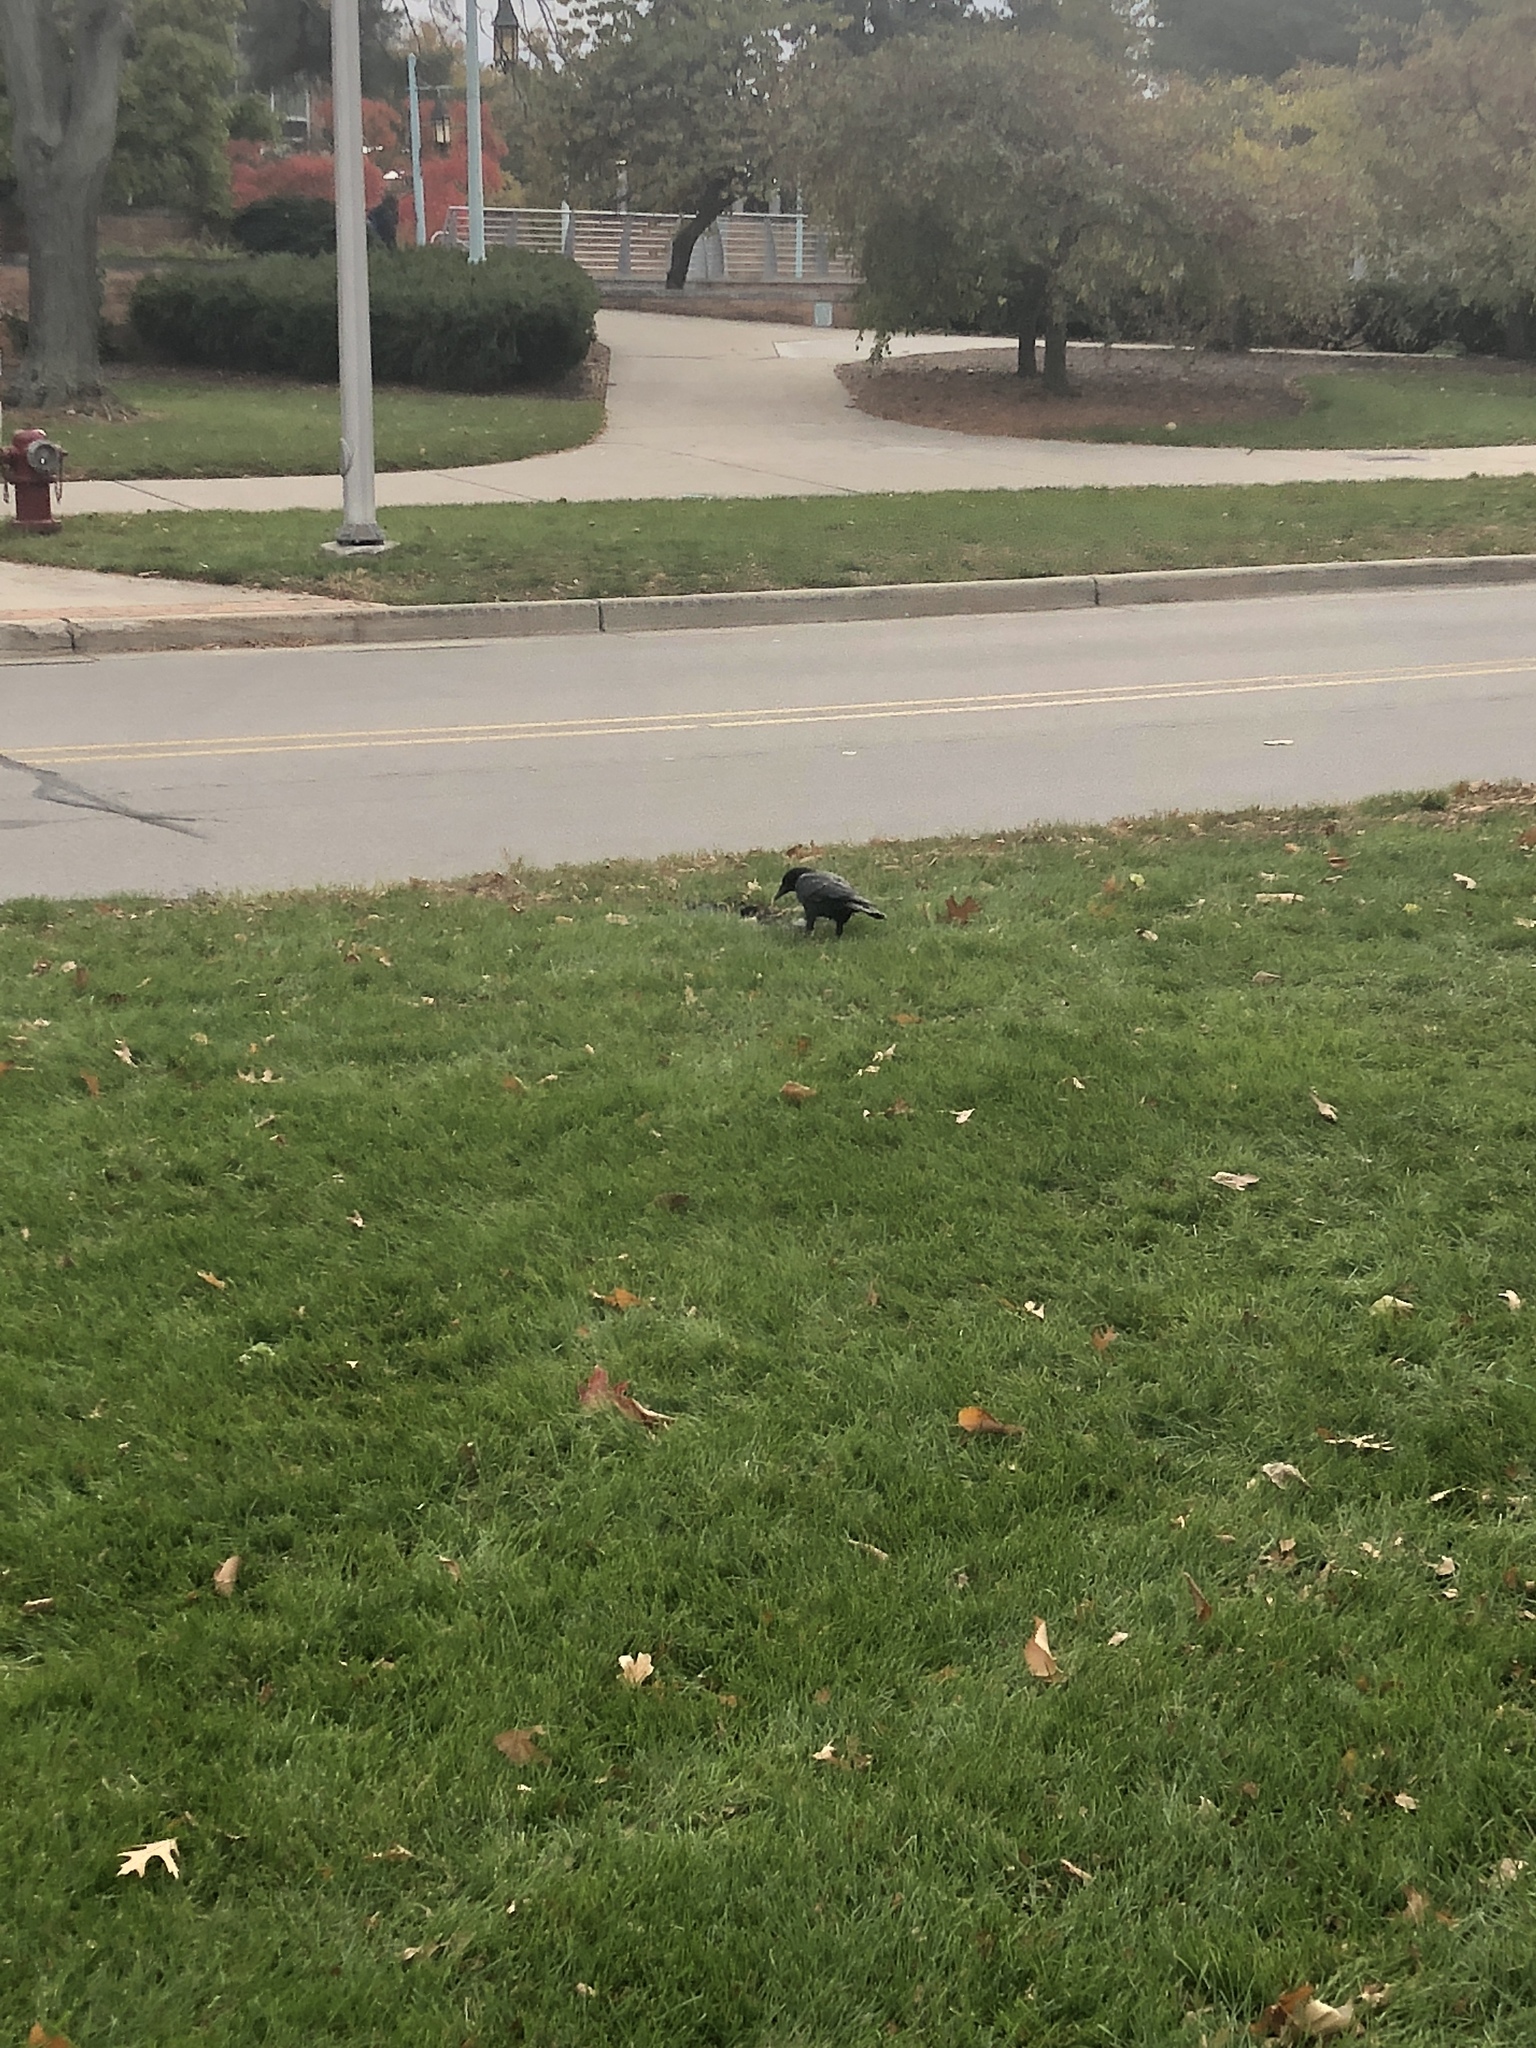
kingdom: Animalia
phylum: Chordata
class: Aves
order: Passeriformes
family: Corvidae
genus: Corvus
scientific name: Corvus brachyrhynchos
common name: American crow
